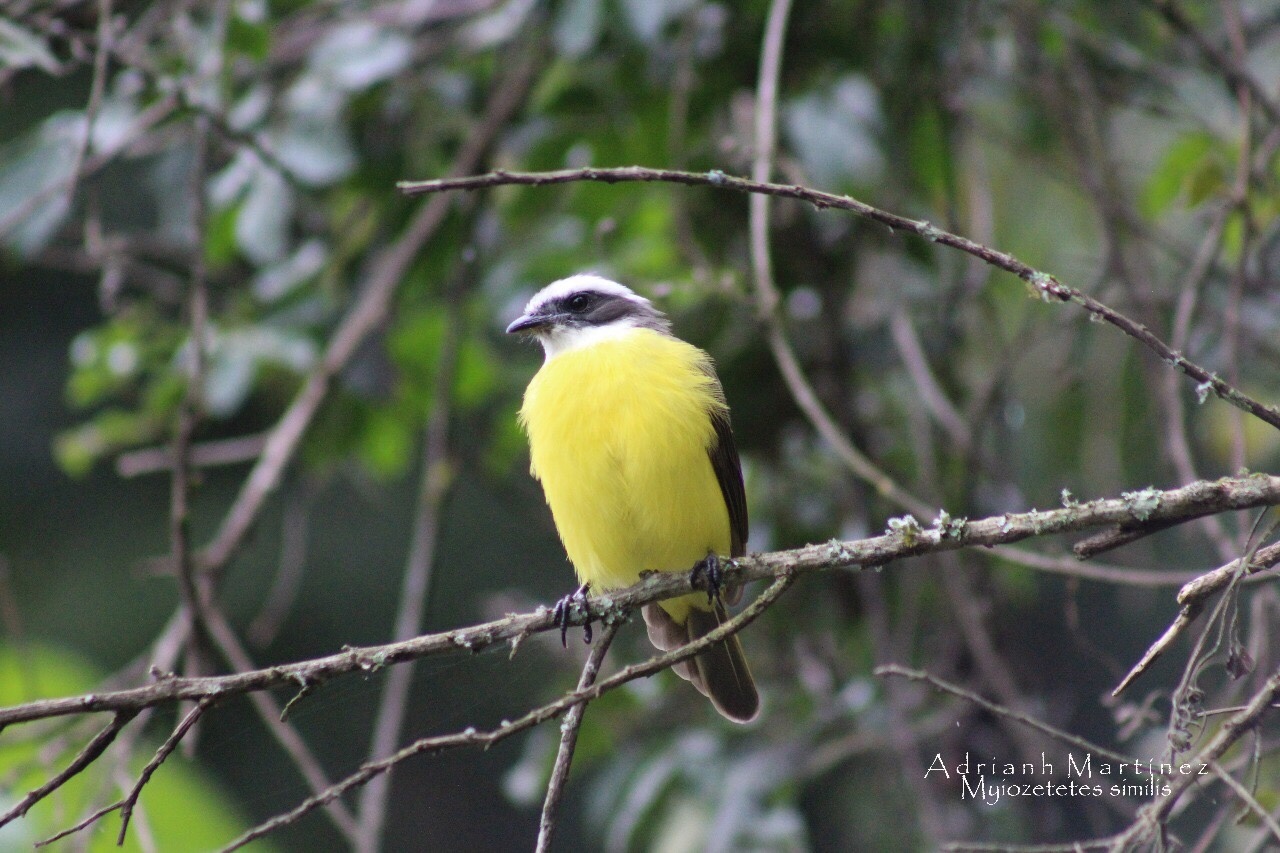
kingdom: Animalia
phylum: Chordata
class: Aves
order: Passeriformes
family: Tyrannidae
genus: Myiozetetes
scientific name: Myiozetetes similis
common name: Social flycatcher
